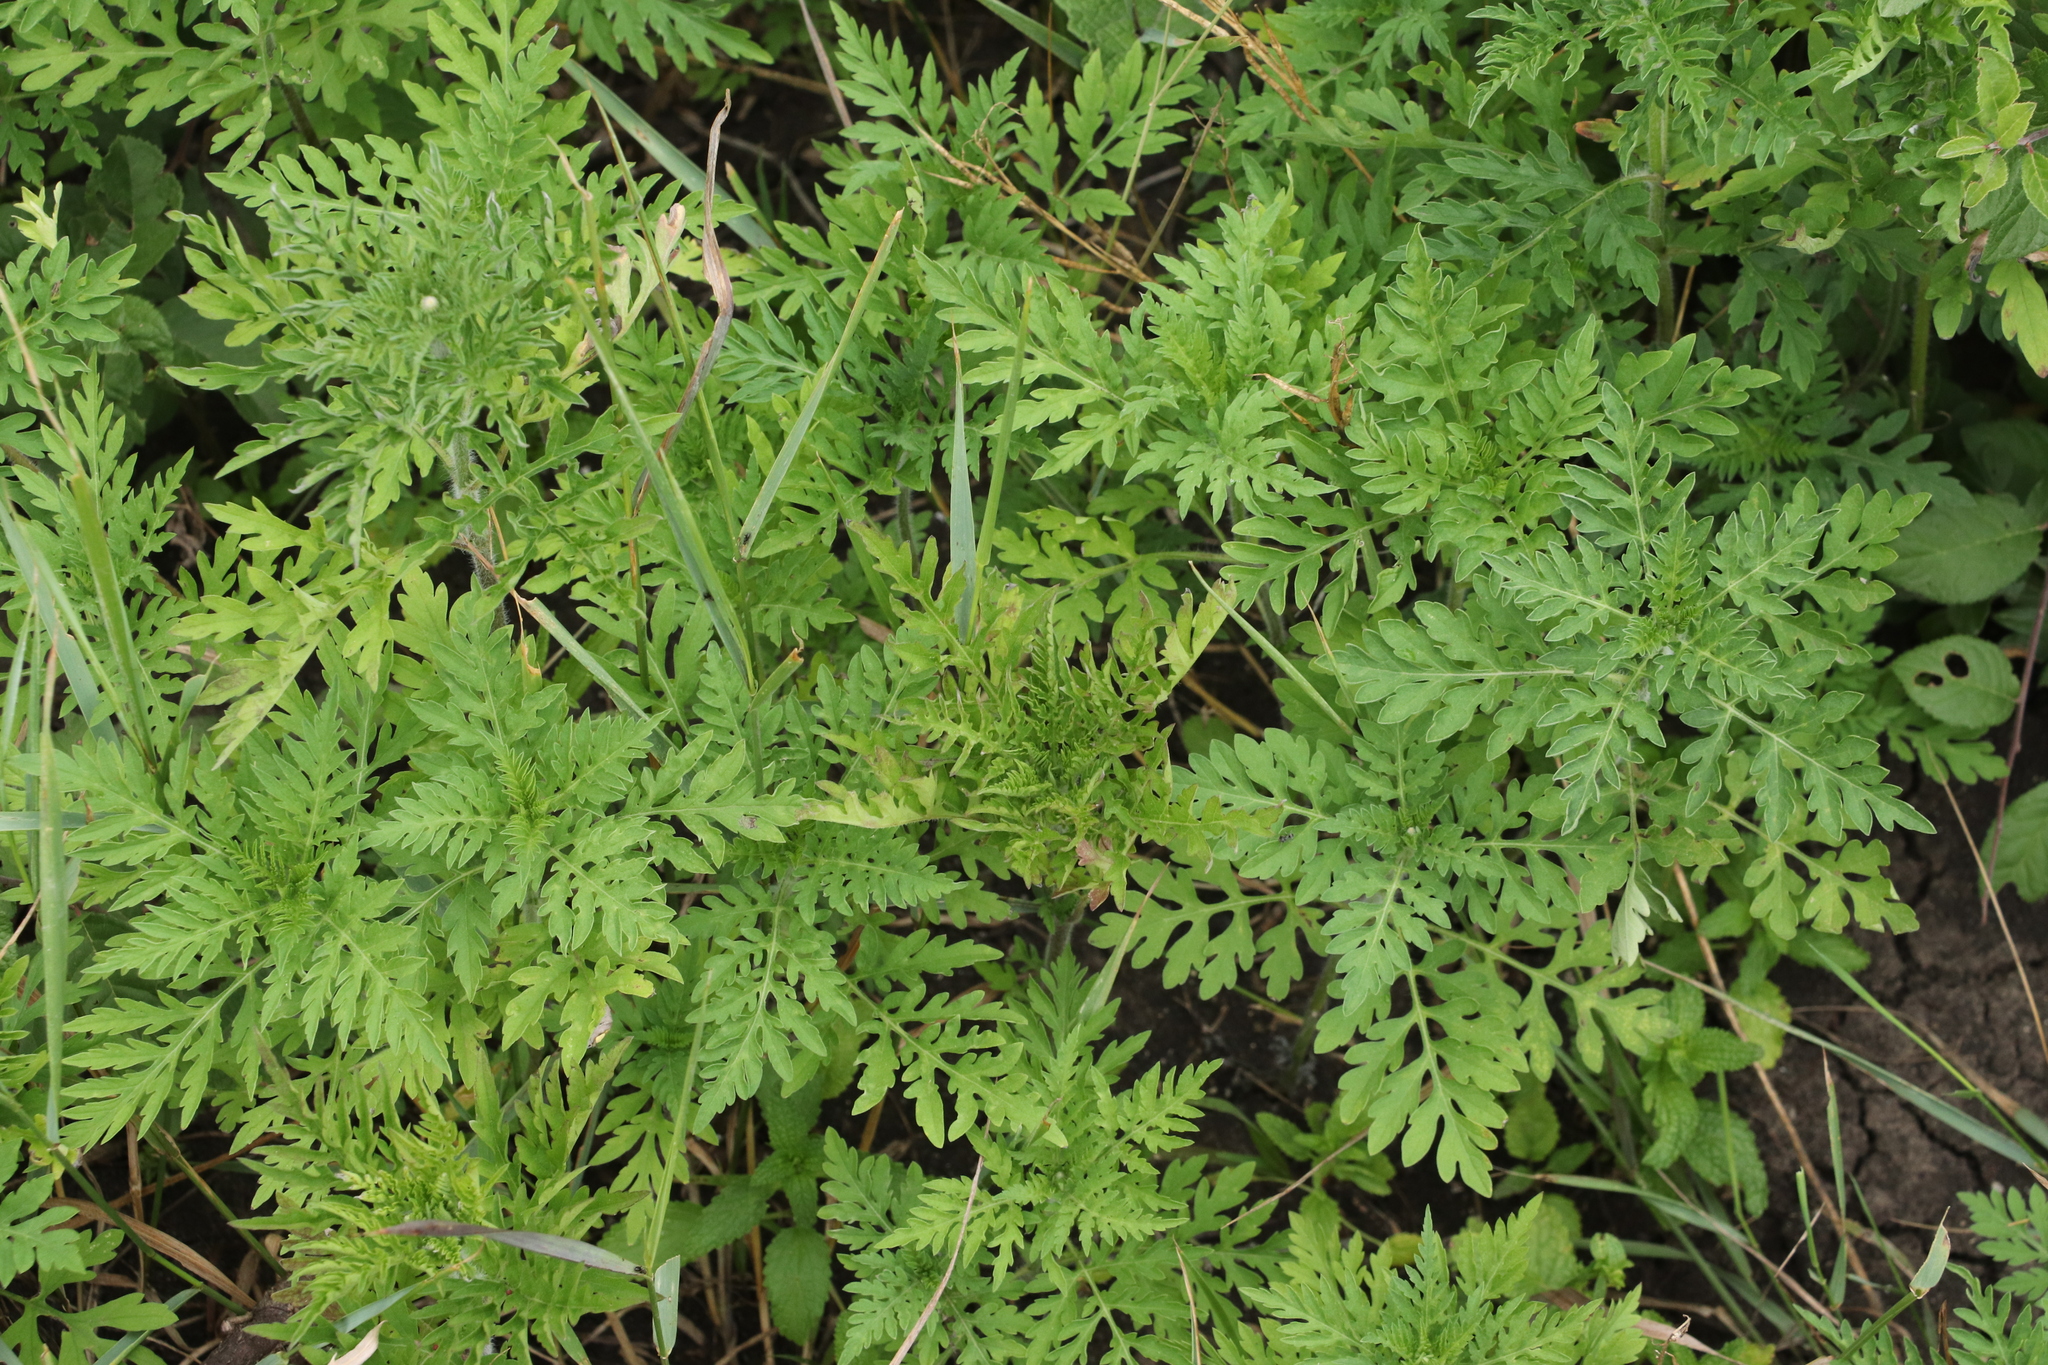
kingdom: Plantae
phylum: Tracheophyta
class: Magnoliopsida
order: Asterales
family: Asteraceae
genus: Ambrosia
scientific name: Ambrosia artemisiifolia
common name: Annual ragweed
